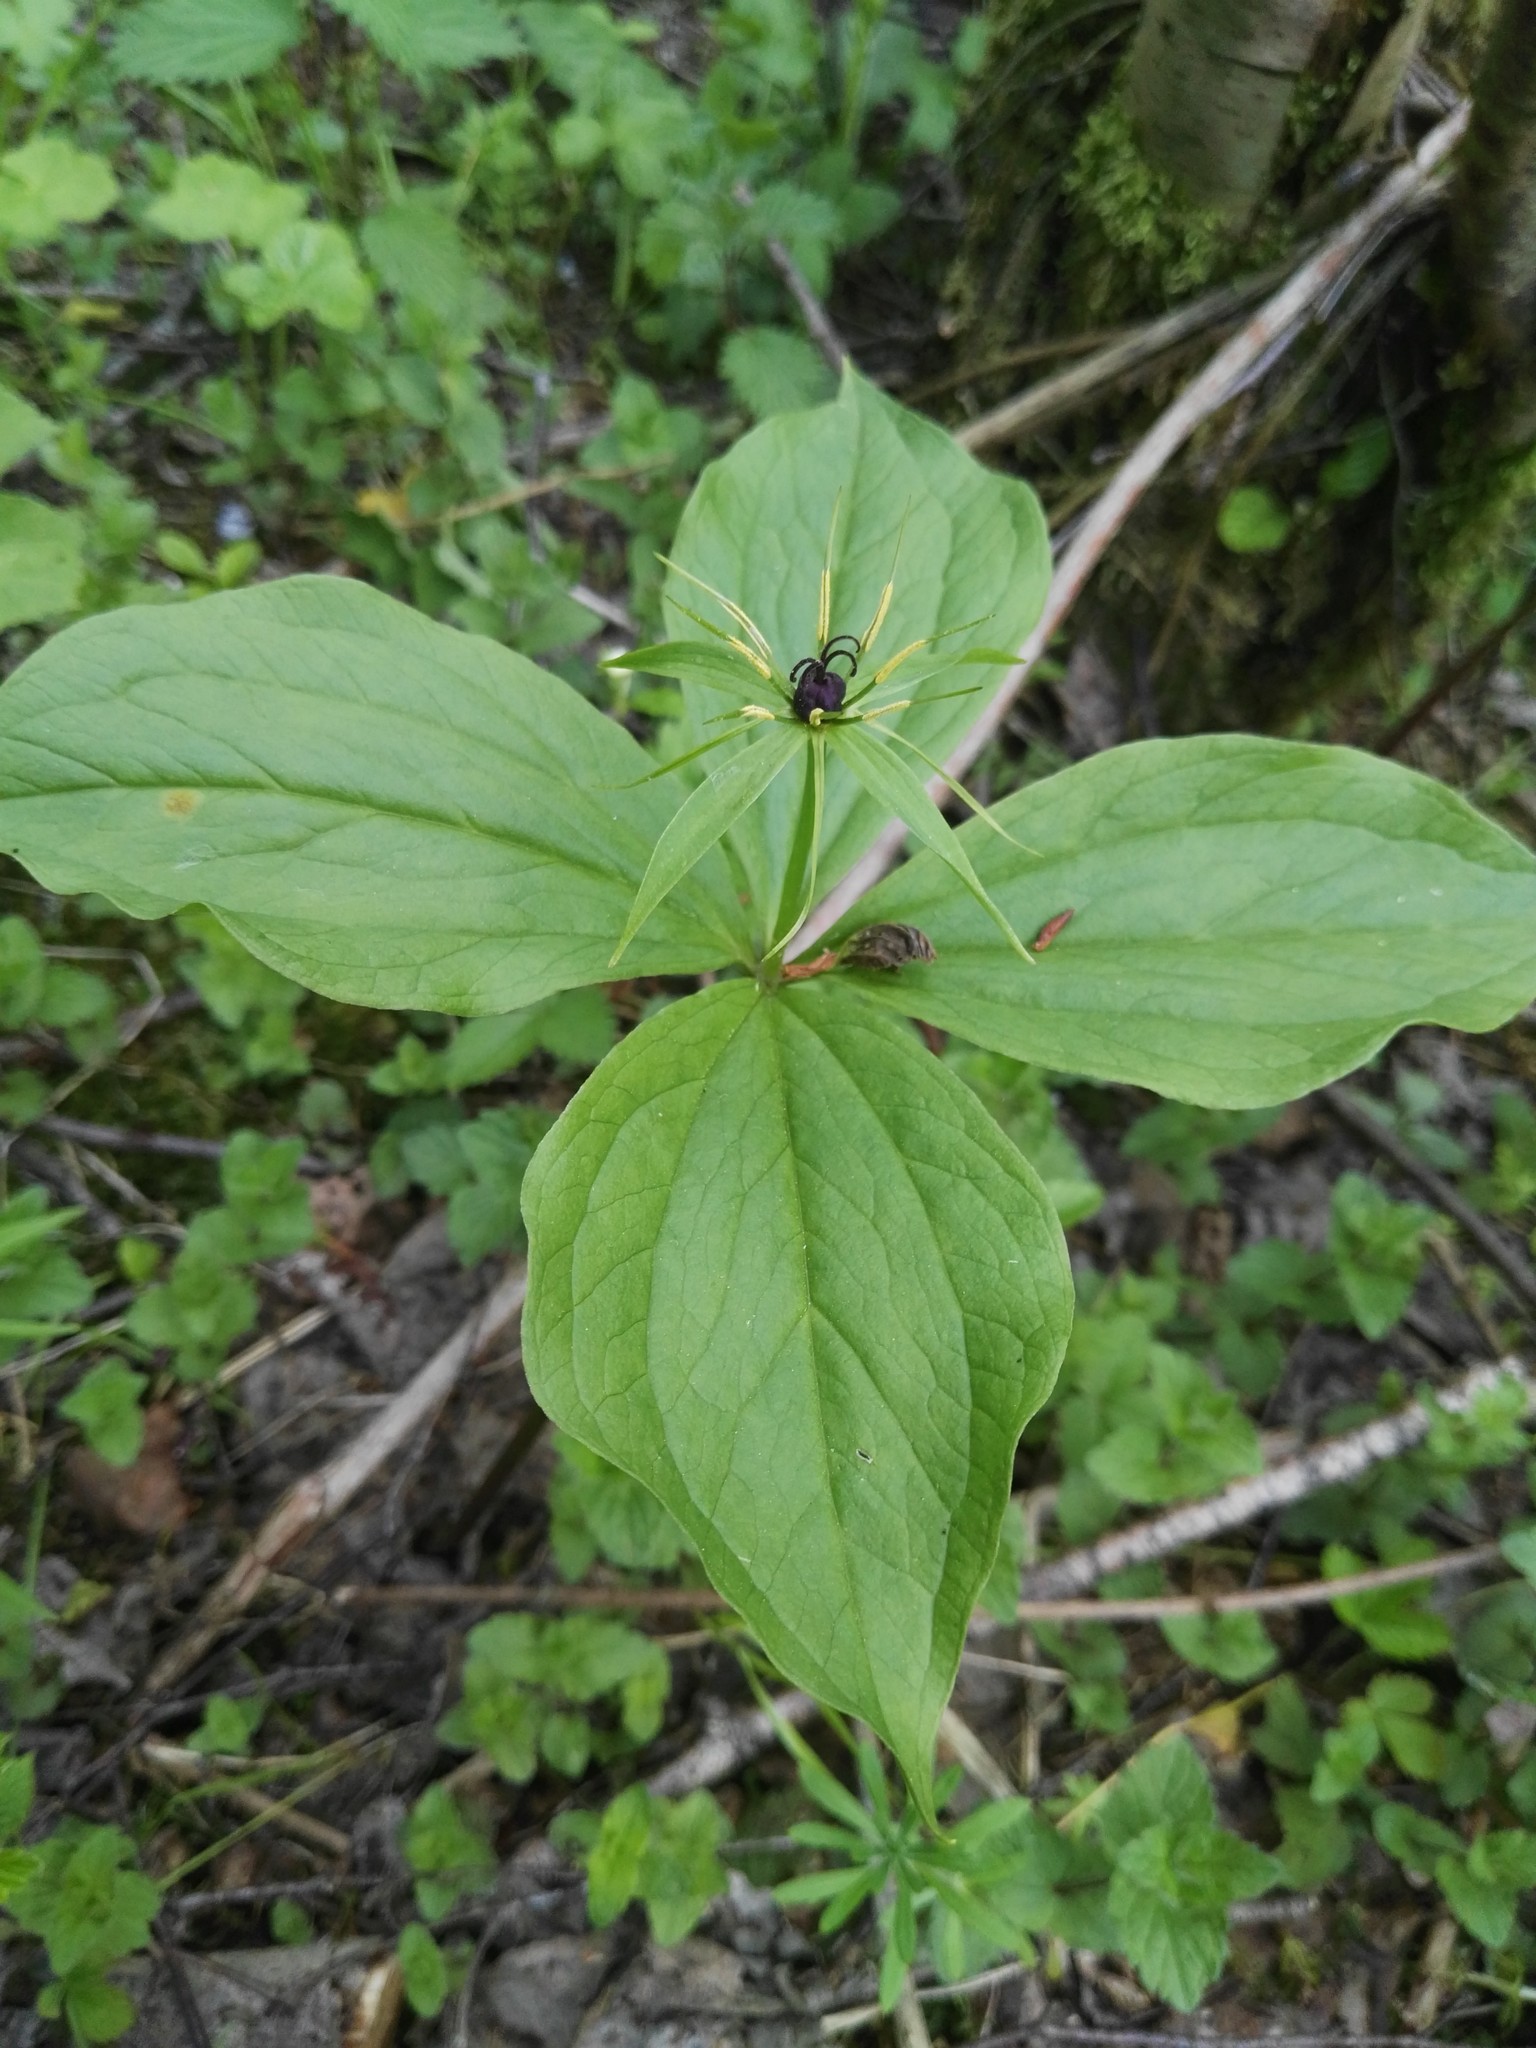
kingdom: Plantae
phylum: Tracheophyta
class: Liliopsida
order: Liliales
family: Melanthiaceae
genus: Paris
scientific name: Paris quadrifolia
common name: Herb-paris
